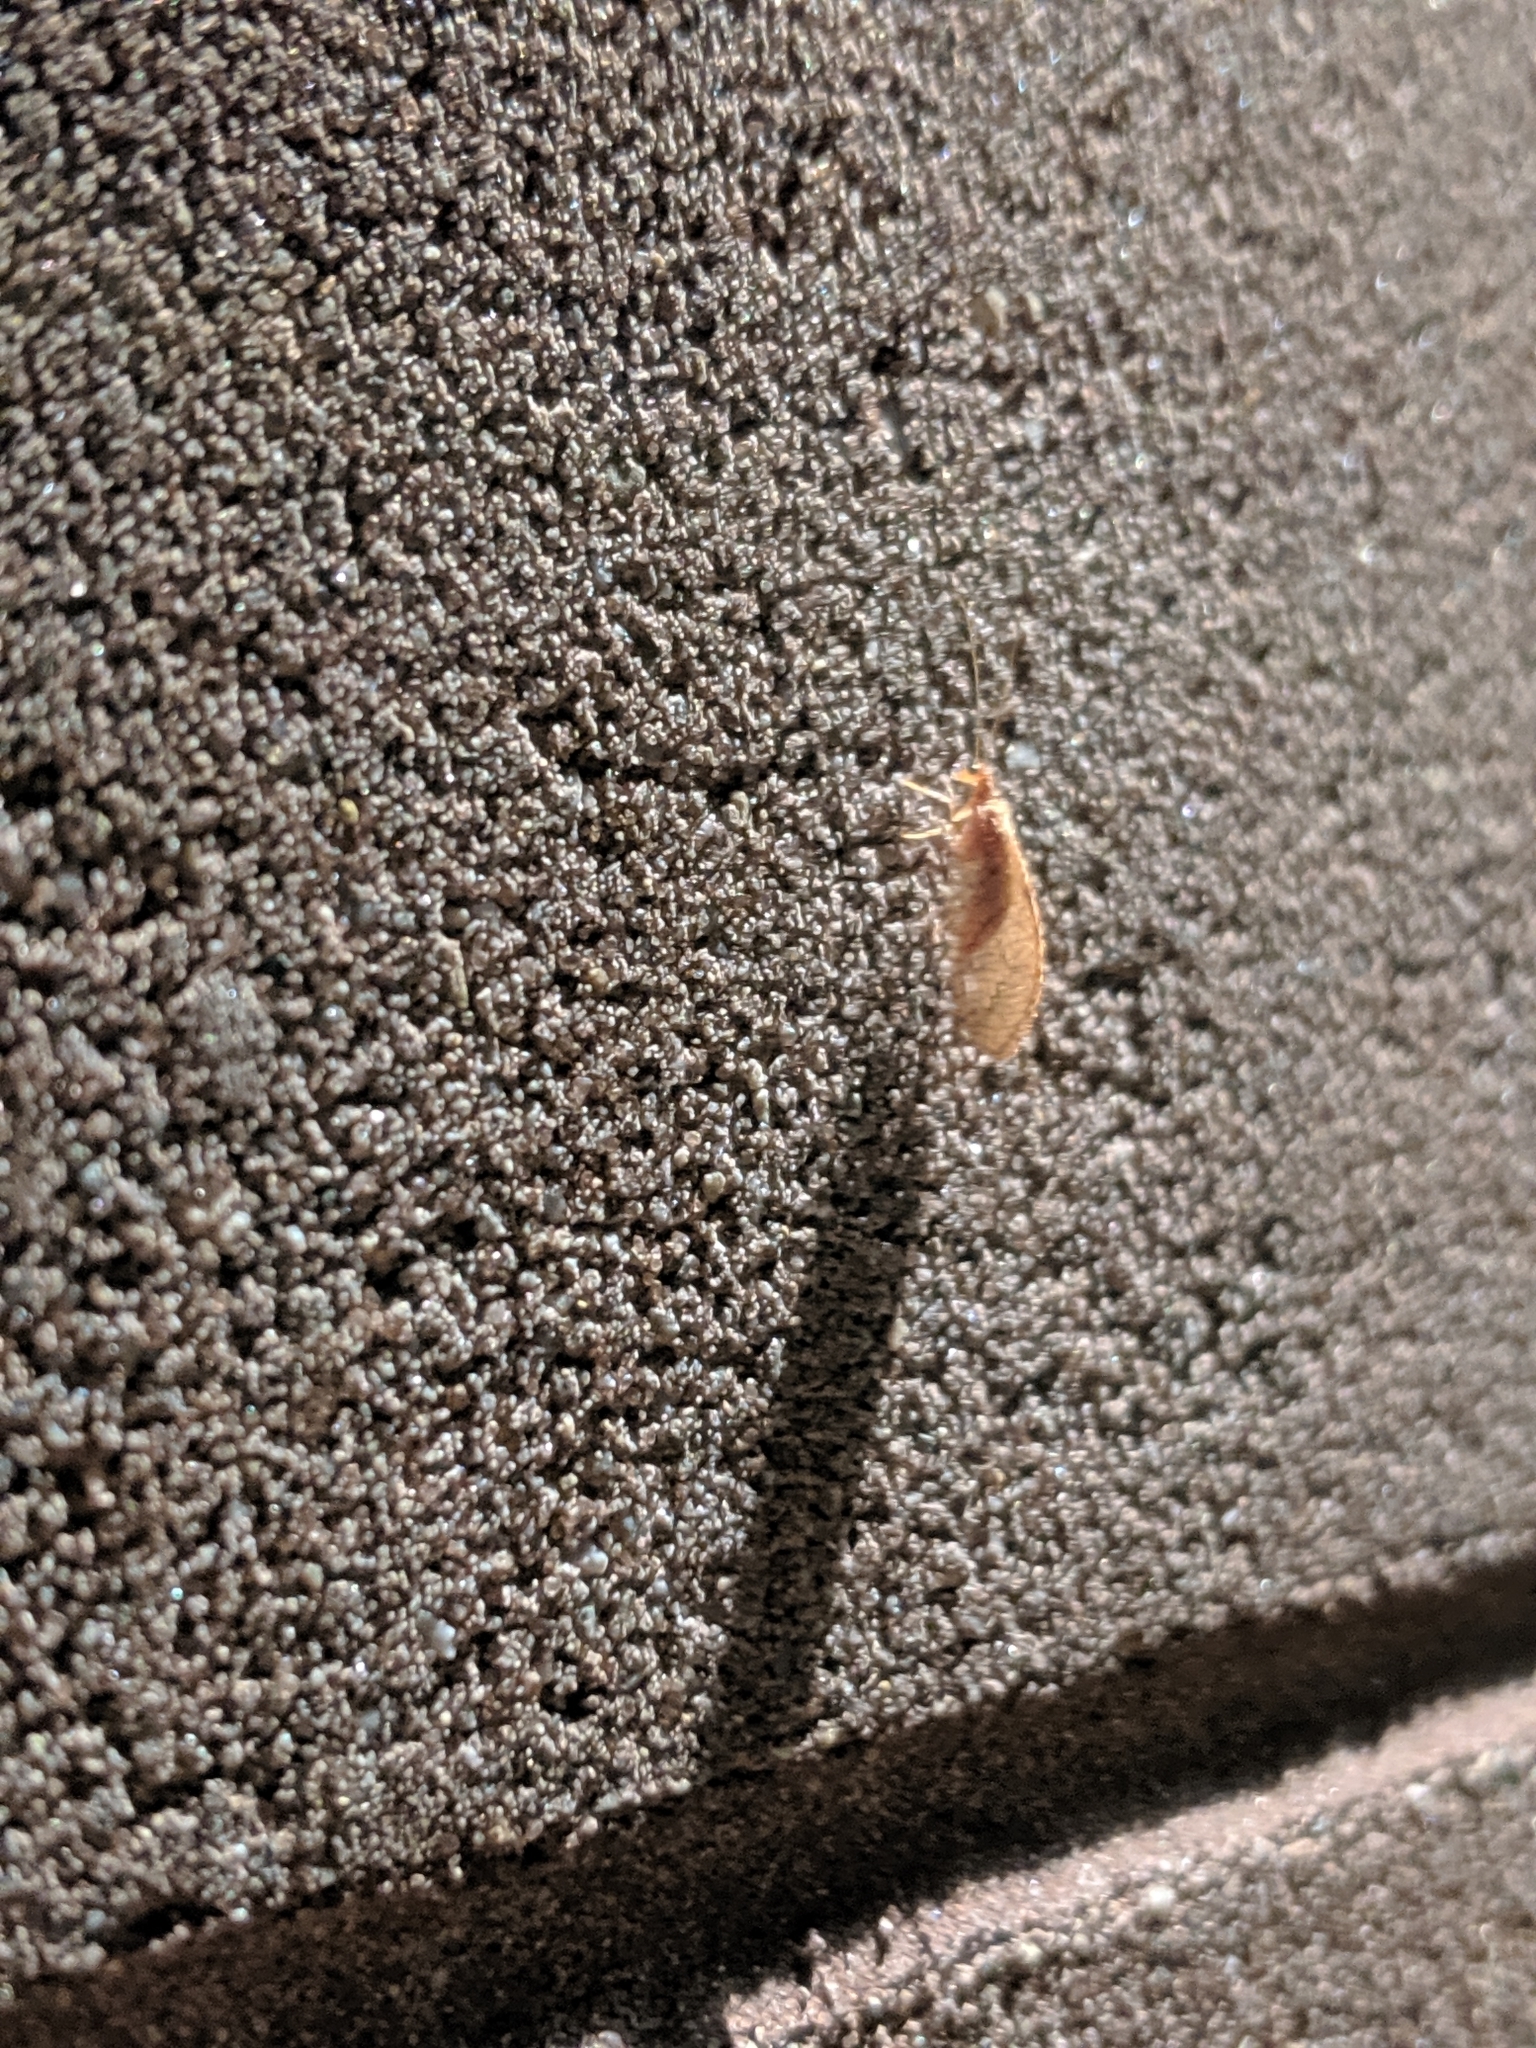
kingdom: Animalia
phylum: Arthropoda
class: Insecta
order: Neuroptera
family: Hemerobiidae
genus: Micromus
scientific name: Micromus
